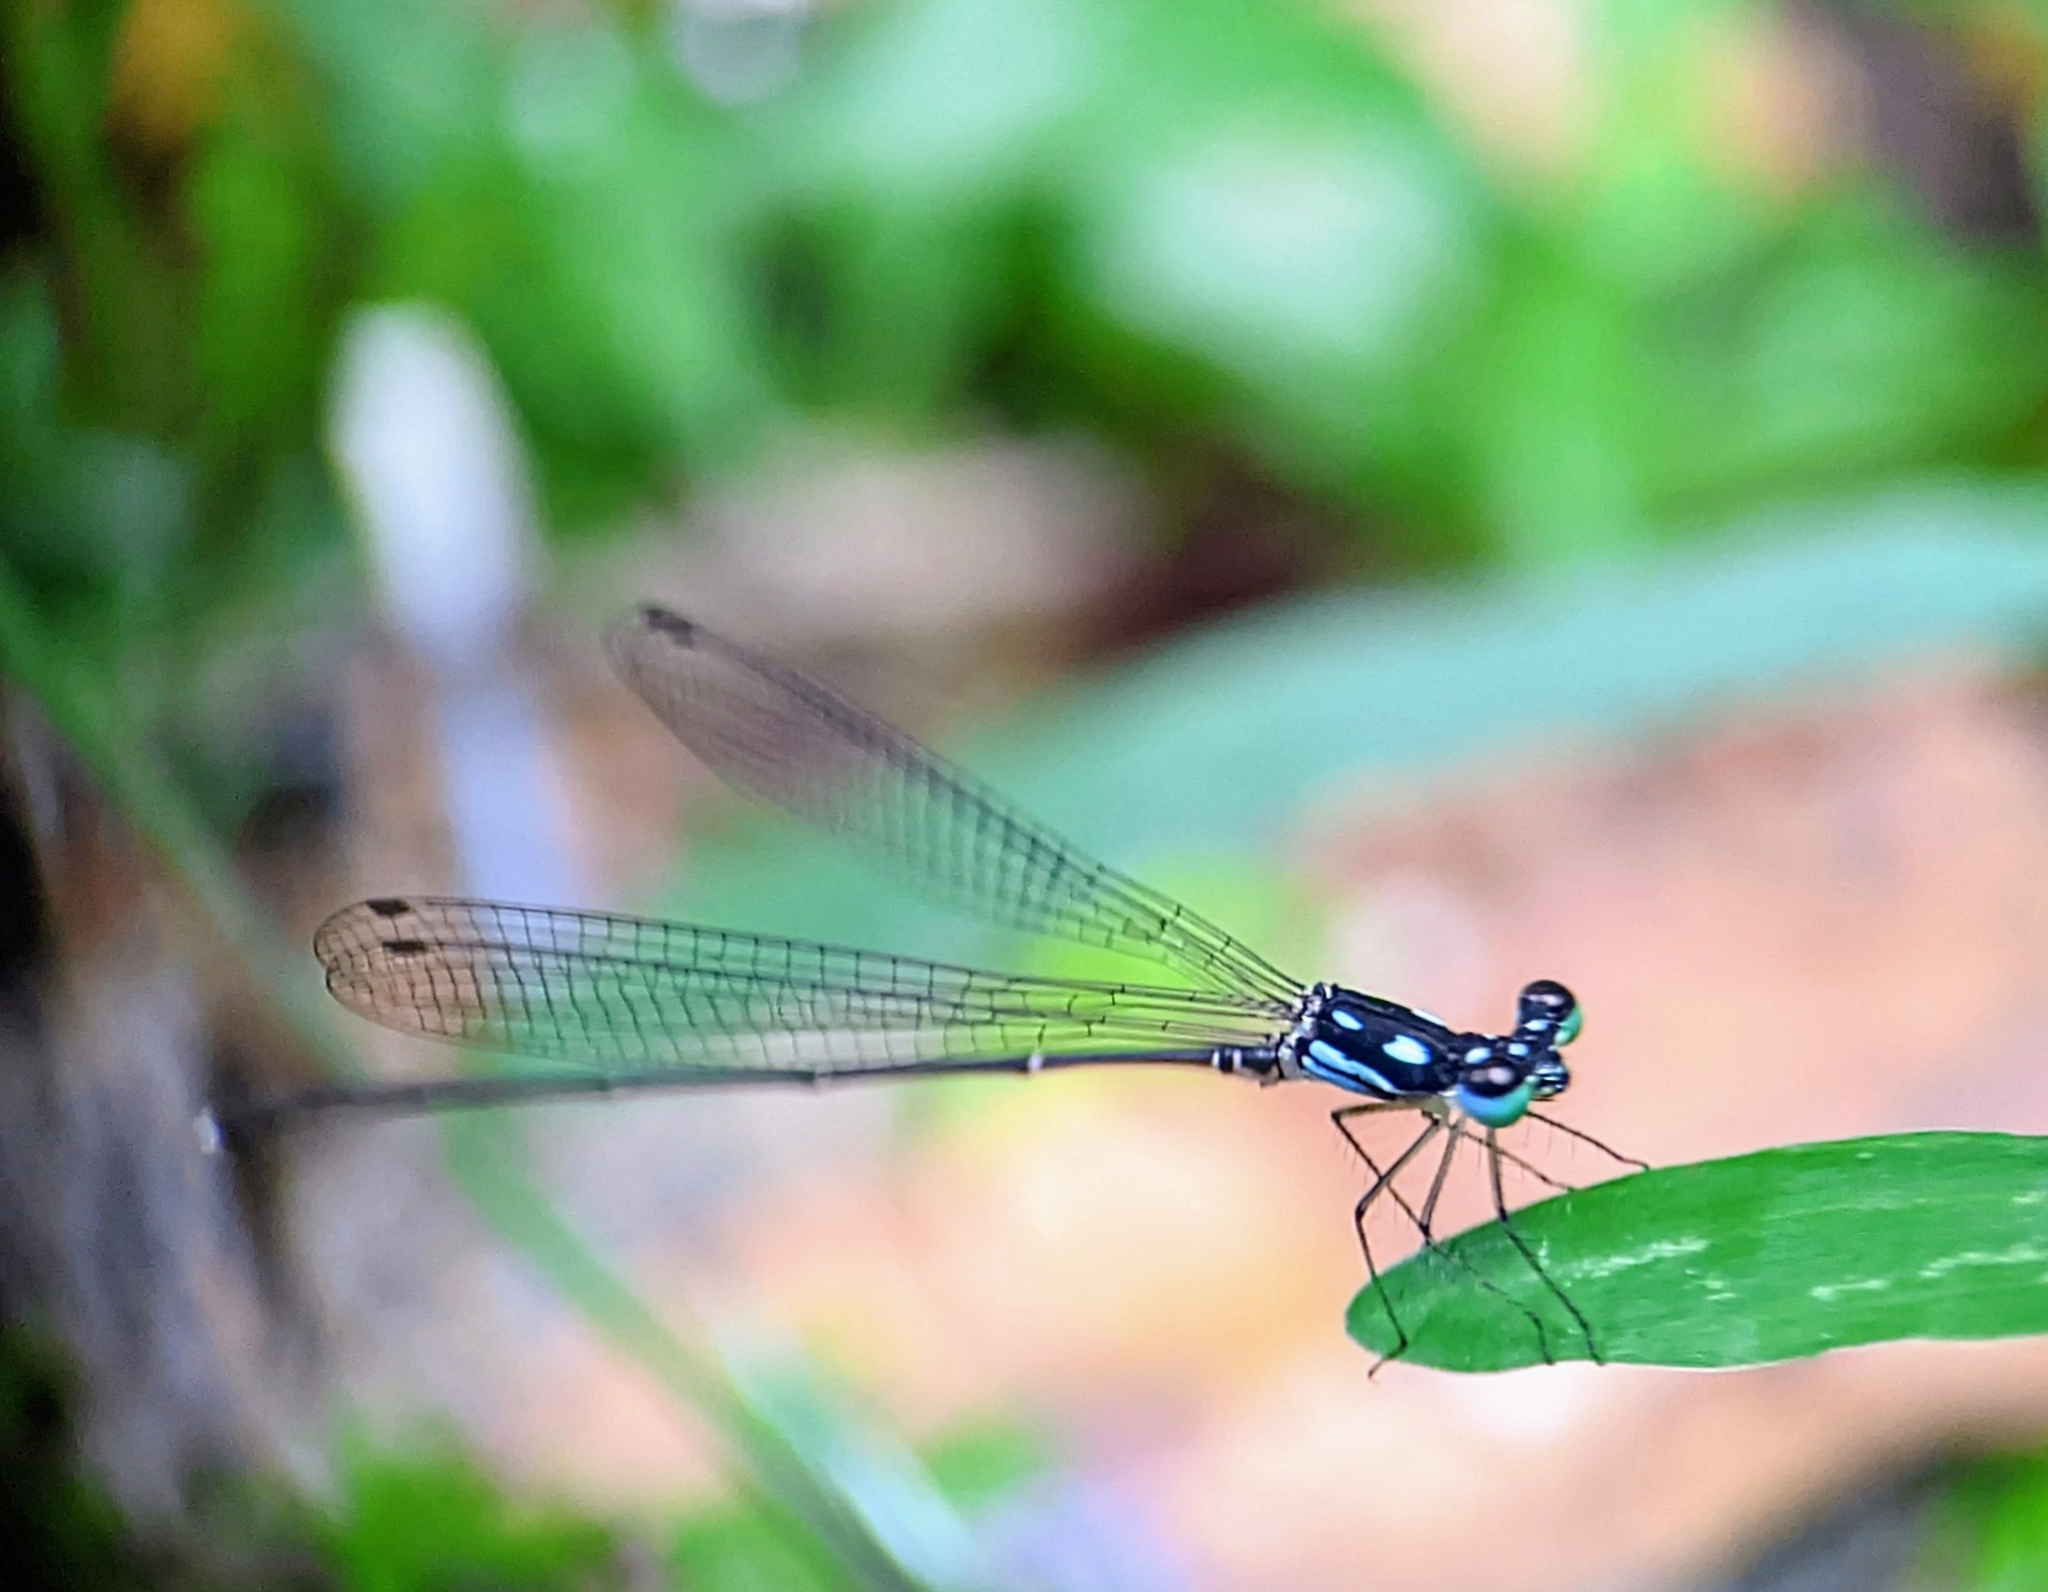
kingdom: Animalia
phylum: Arthropoda
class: Insecta
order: Odonata
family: Platycnemididae
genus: Coeliccia
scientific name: Coeliccia albicauda
